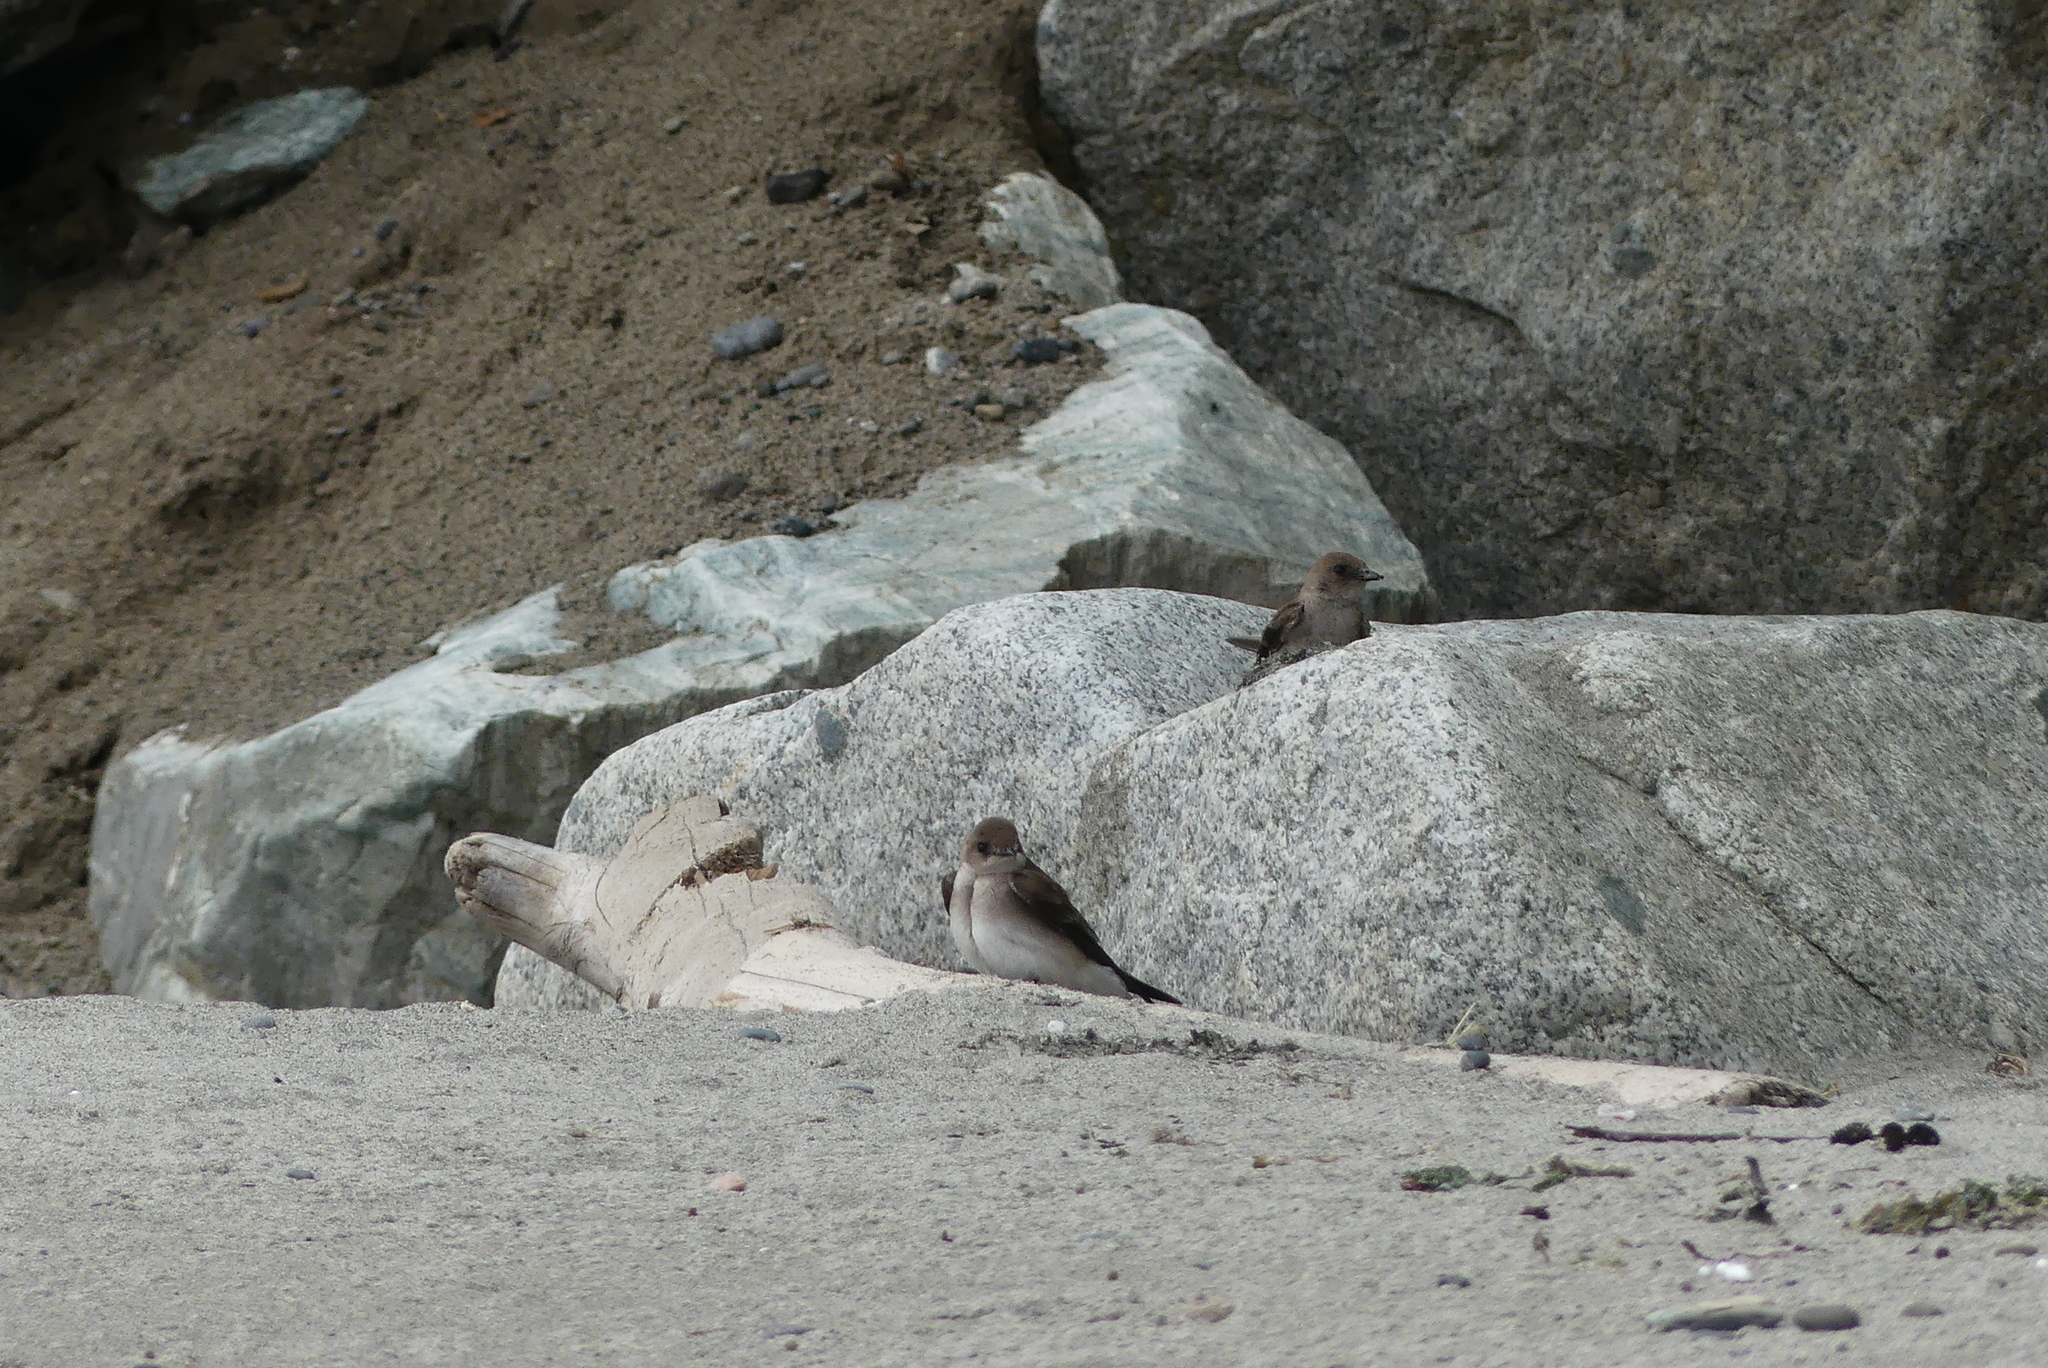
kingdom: Animalia
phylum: Chordata
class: Aves
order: Passeriformes
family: Hirundinidae
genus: Stelgidopteryx
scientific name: Stelgidopteryx serripennis
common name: Northern rough-winged swallow
